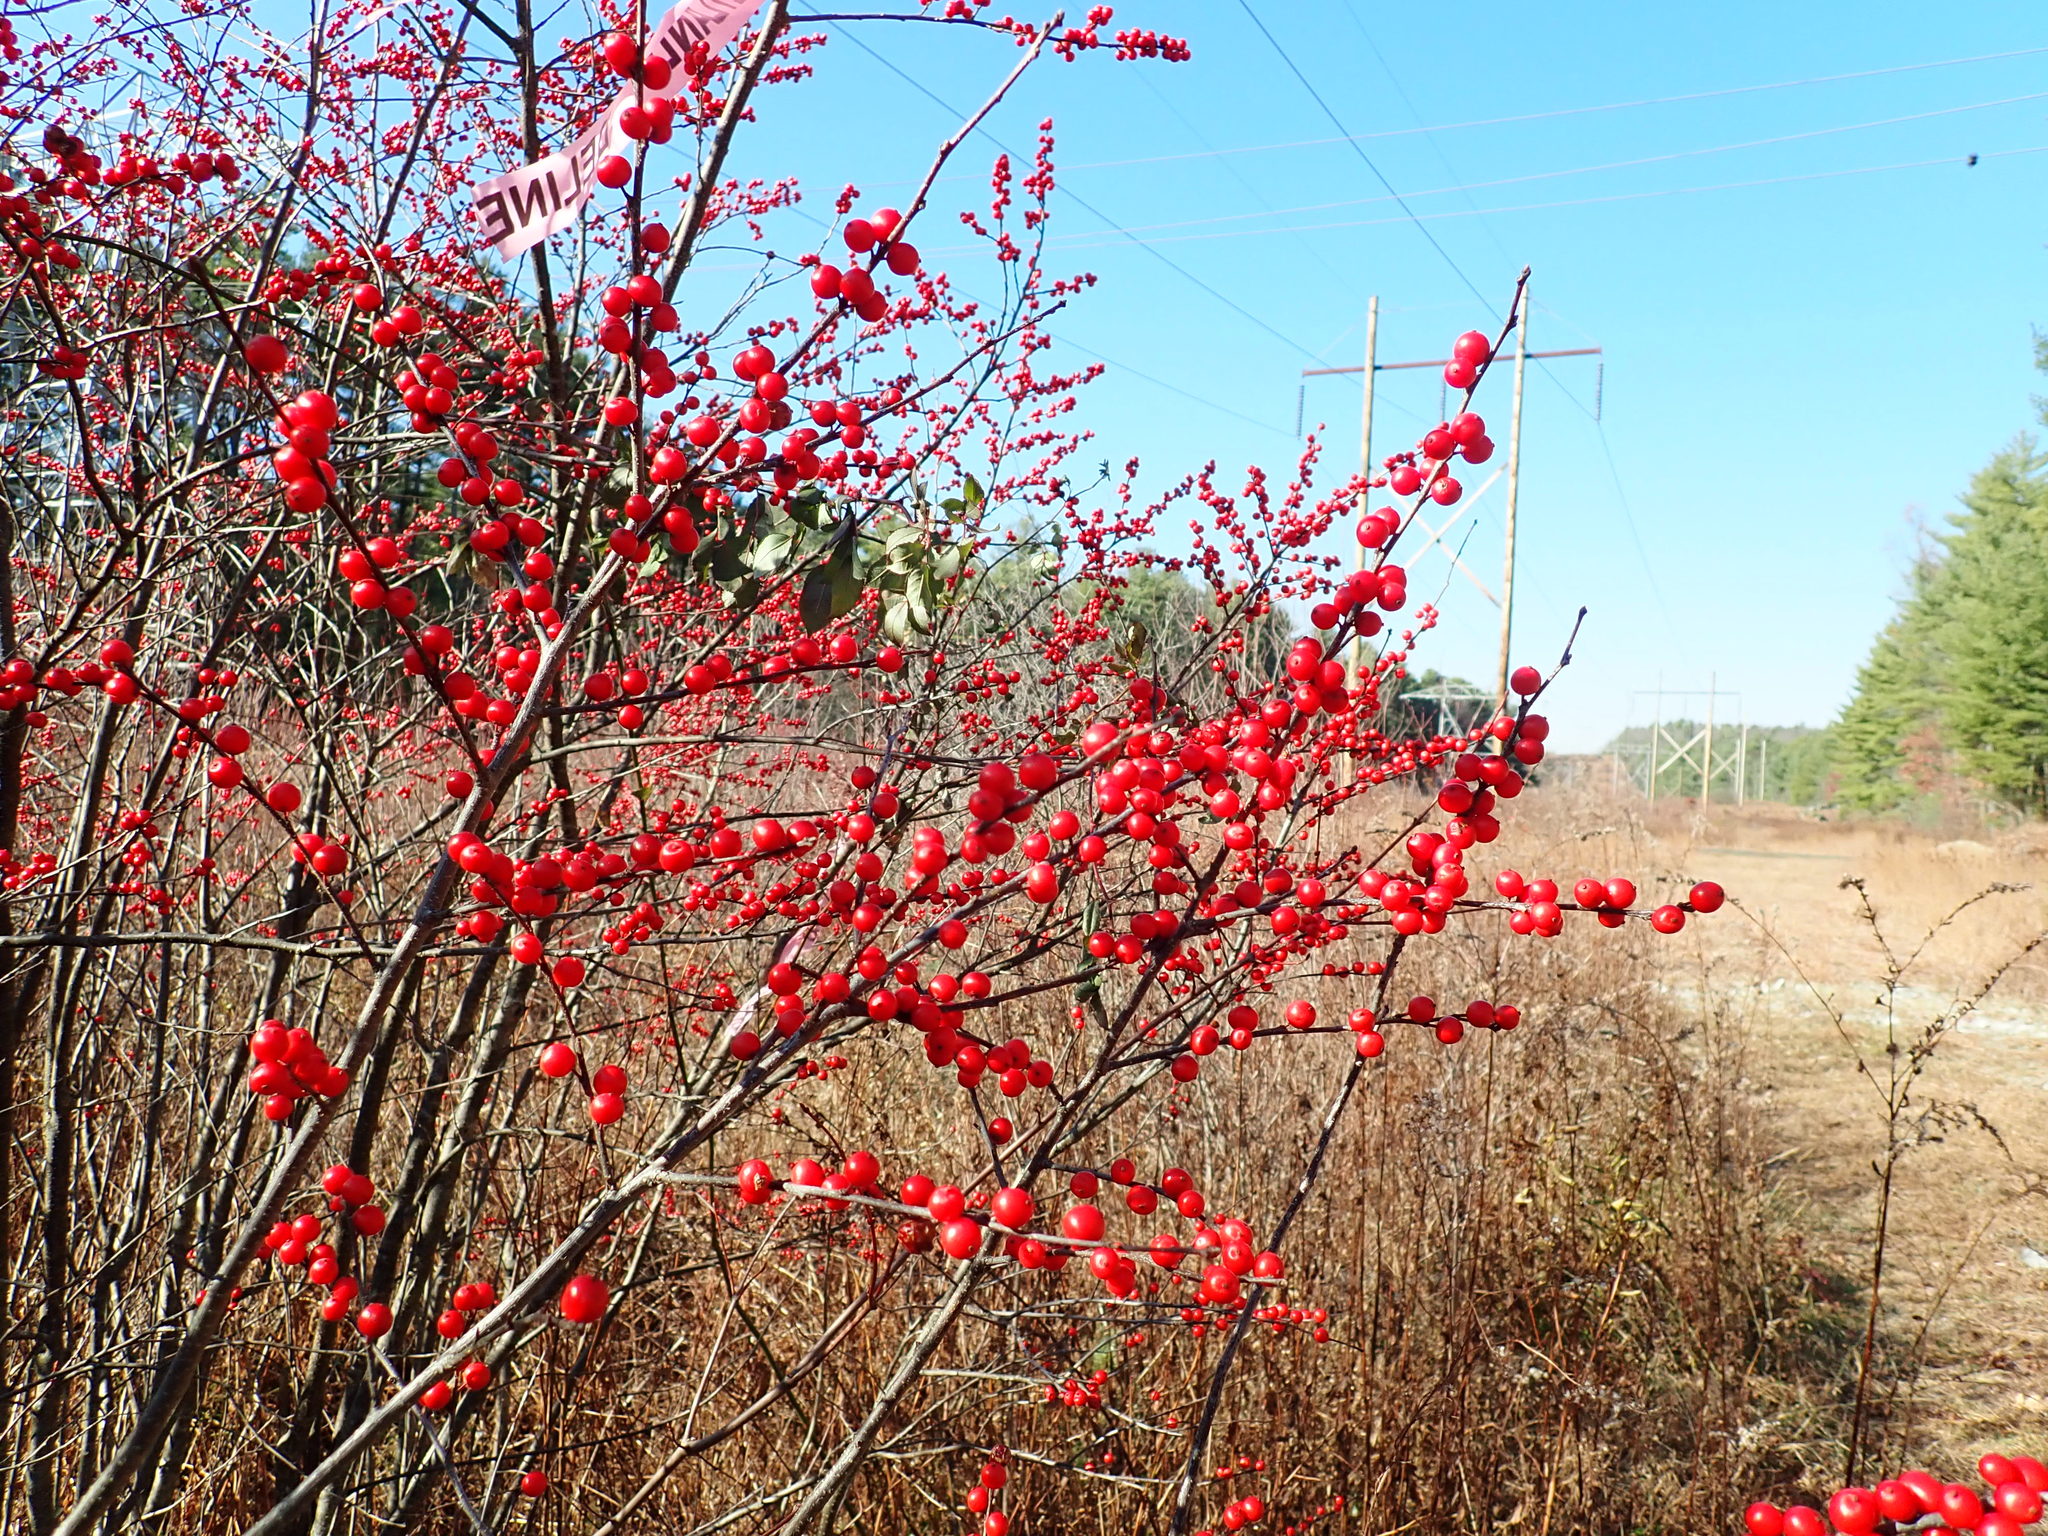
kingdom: Plantae
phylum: Tracheophyta
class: Magnoliopsida
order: Aquifoliales
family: Aquifoliaceae
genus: Ilex
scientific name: Ilex verticillata
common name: Virginia winterberry
